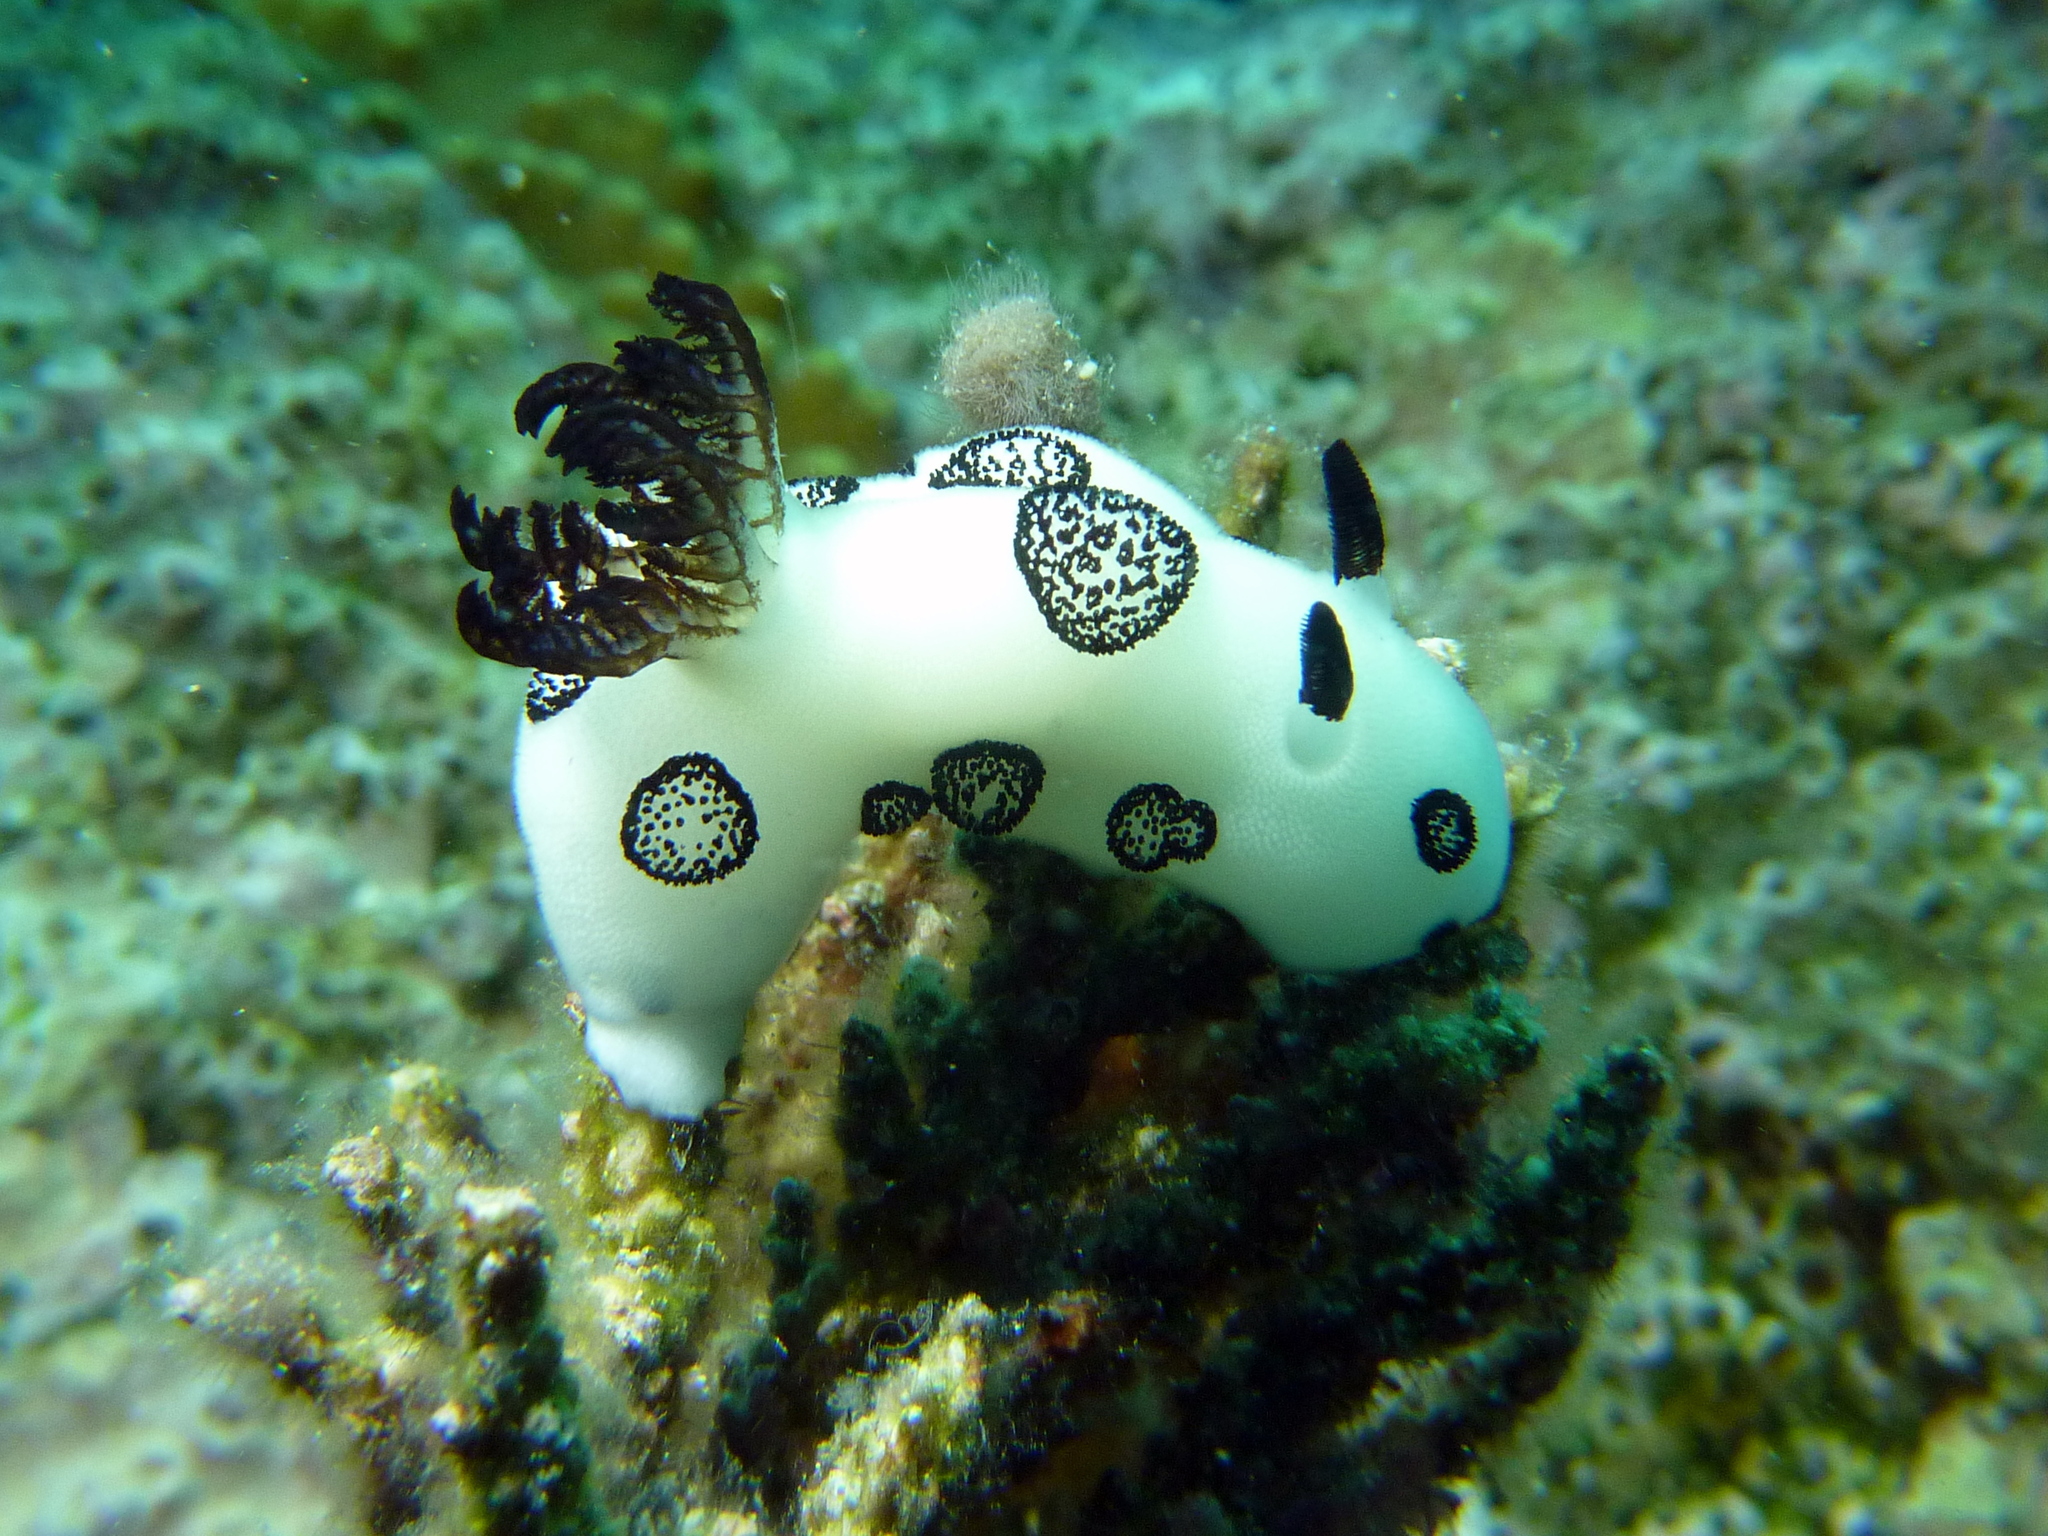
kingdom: Animalia
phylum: Mollusca
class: Gastropoda
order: Nudibranchia
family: Discodorididae
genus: Jorunna
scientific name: Jorunna funebris
